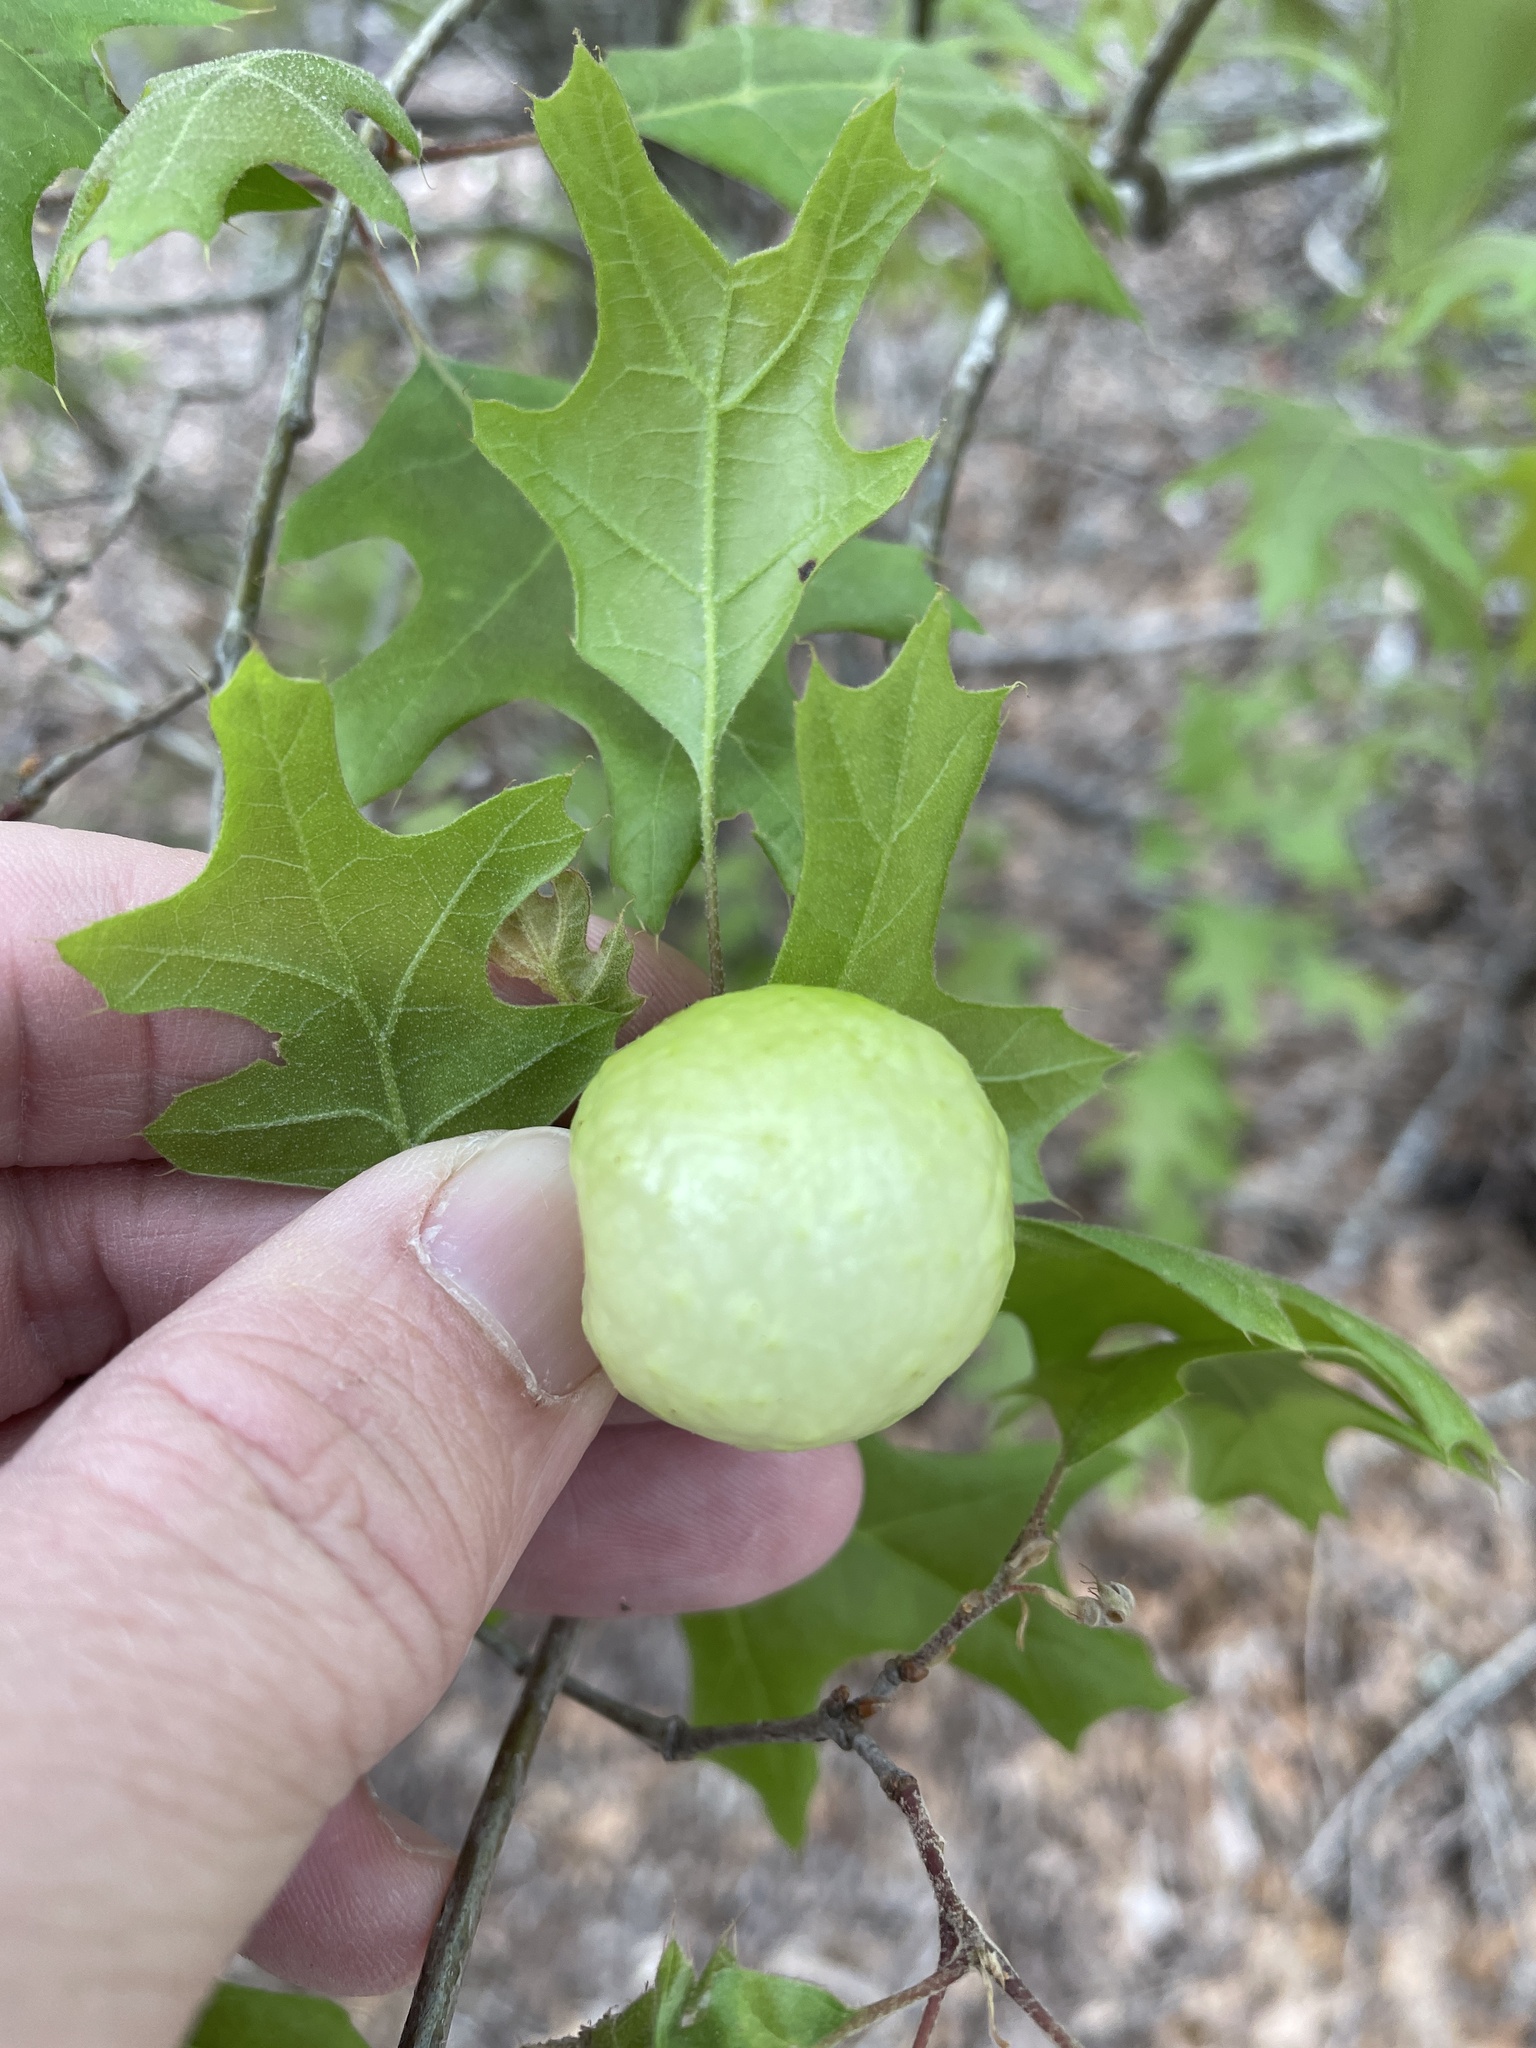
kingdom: Animalia
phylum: Arthropoda
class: Insecta
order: Hymenoptera
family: Cynipidae
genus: Amphibolips
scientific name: Amphibolips
